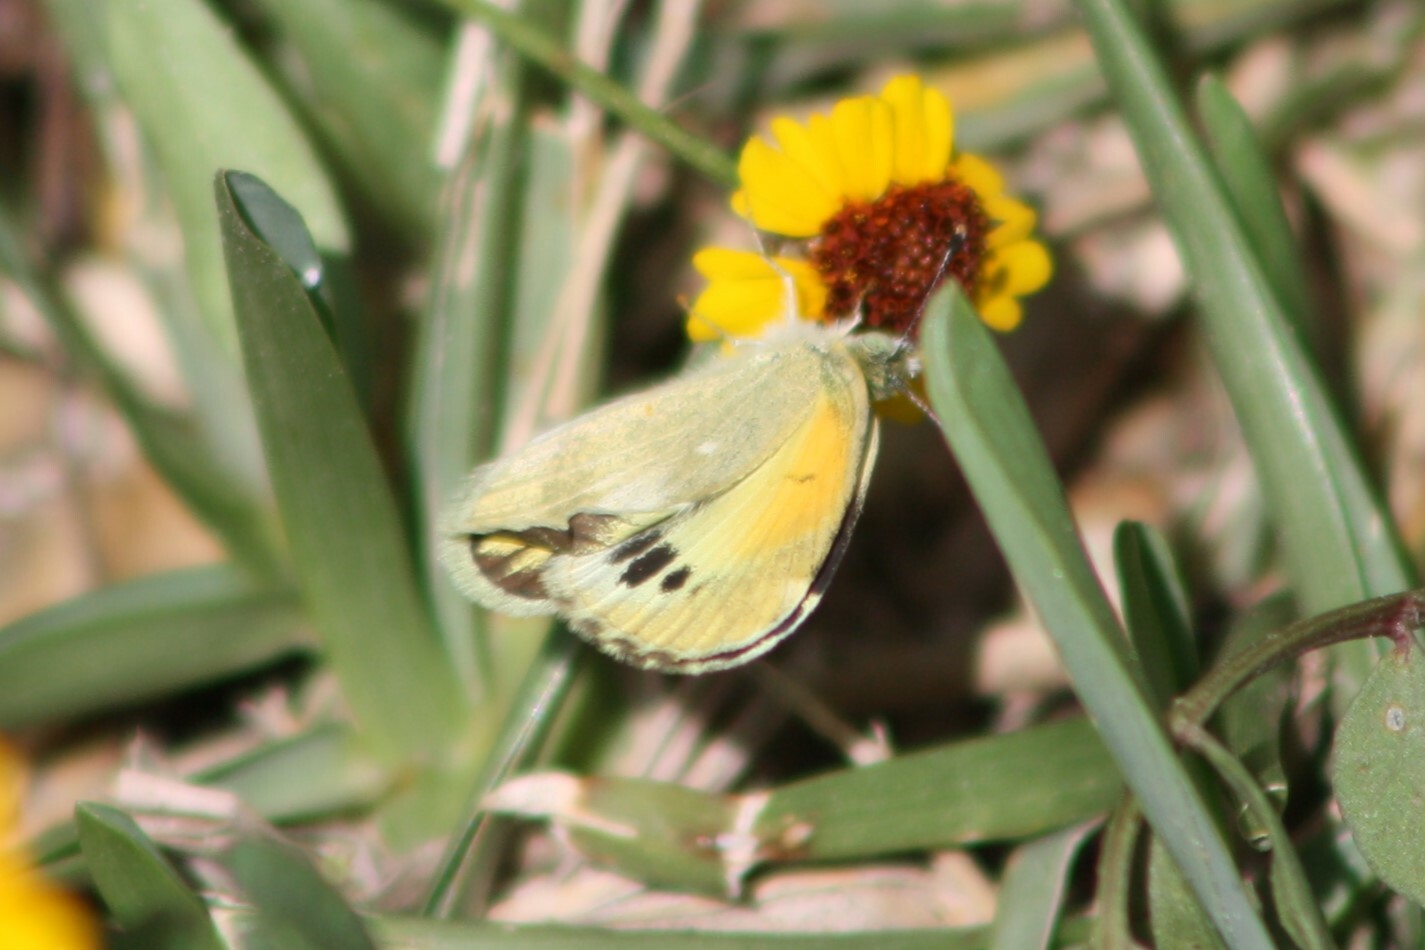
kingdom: Animalia
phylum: Arthropoda
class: Insecta
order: Lepidoptera
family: Pieridae
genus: Nathalis
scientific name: Nathalis iole
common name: Dainty sulphur
